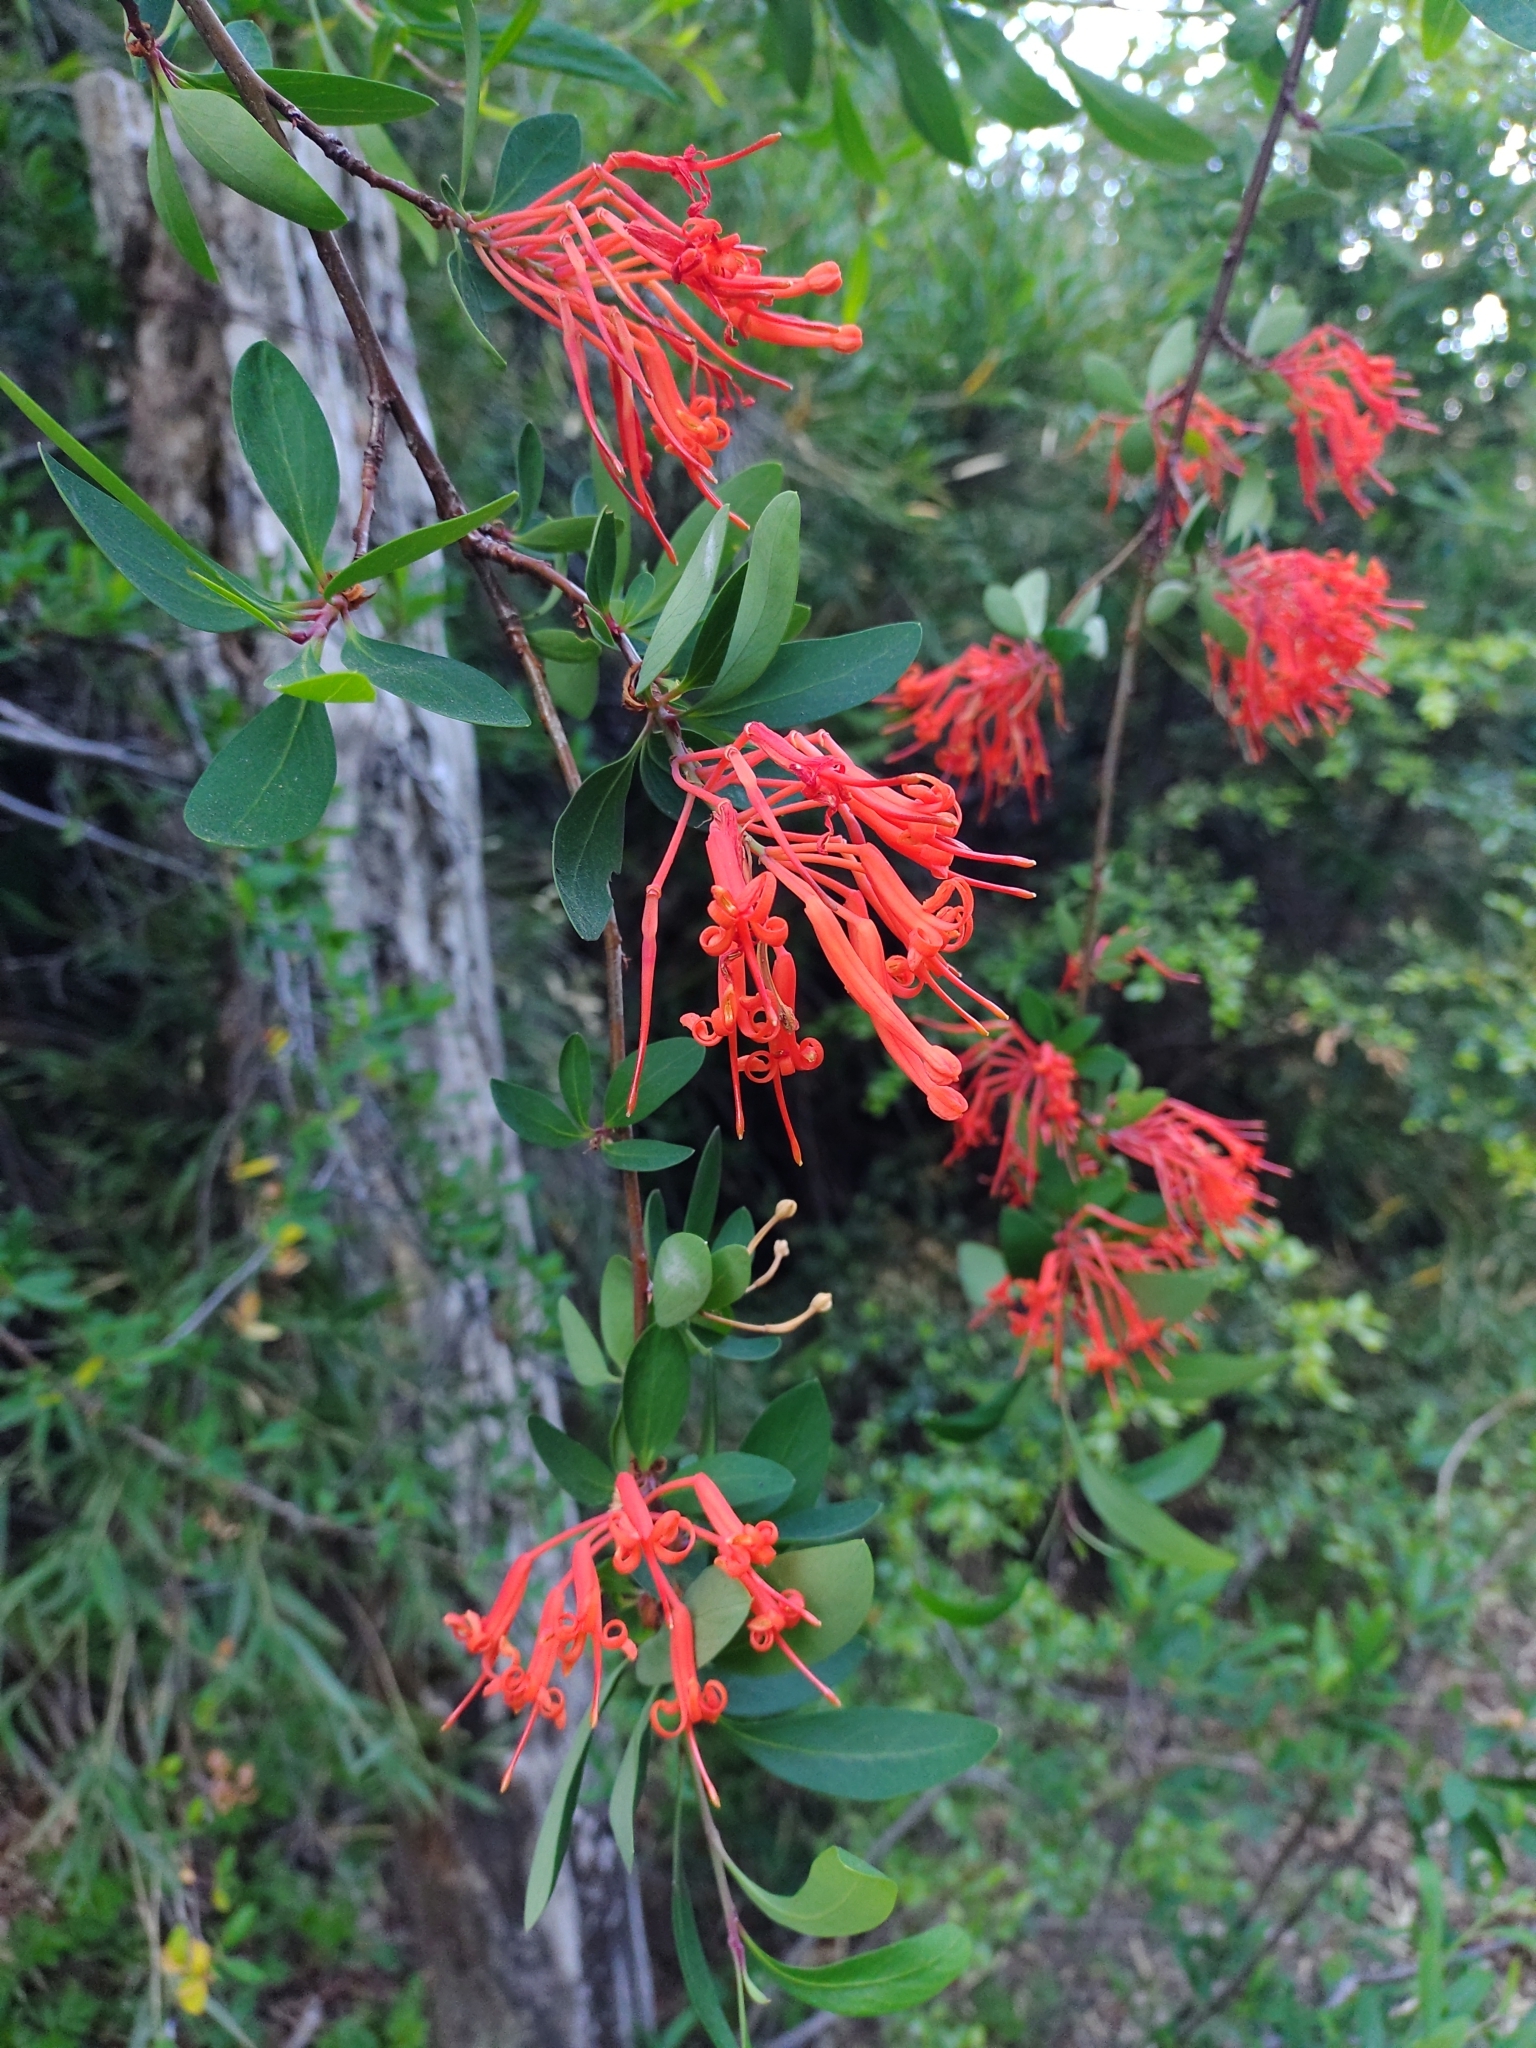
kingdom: Plantae
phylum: Tracheophyta
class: Magnoliopsida
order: Proteales
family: Proteaceae
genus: Embothrium
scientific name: Embothrium coccineum
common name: Chilean firebush
